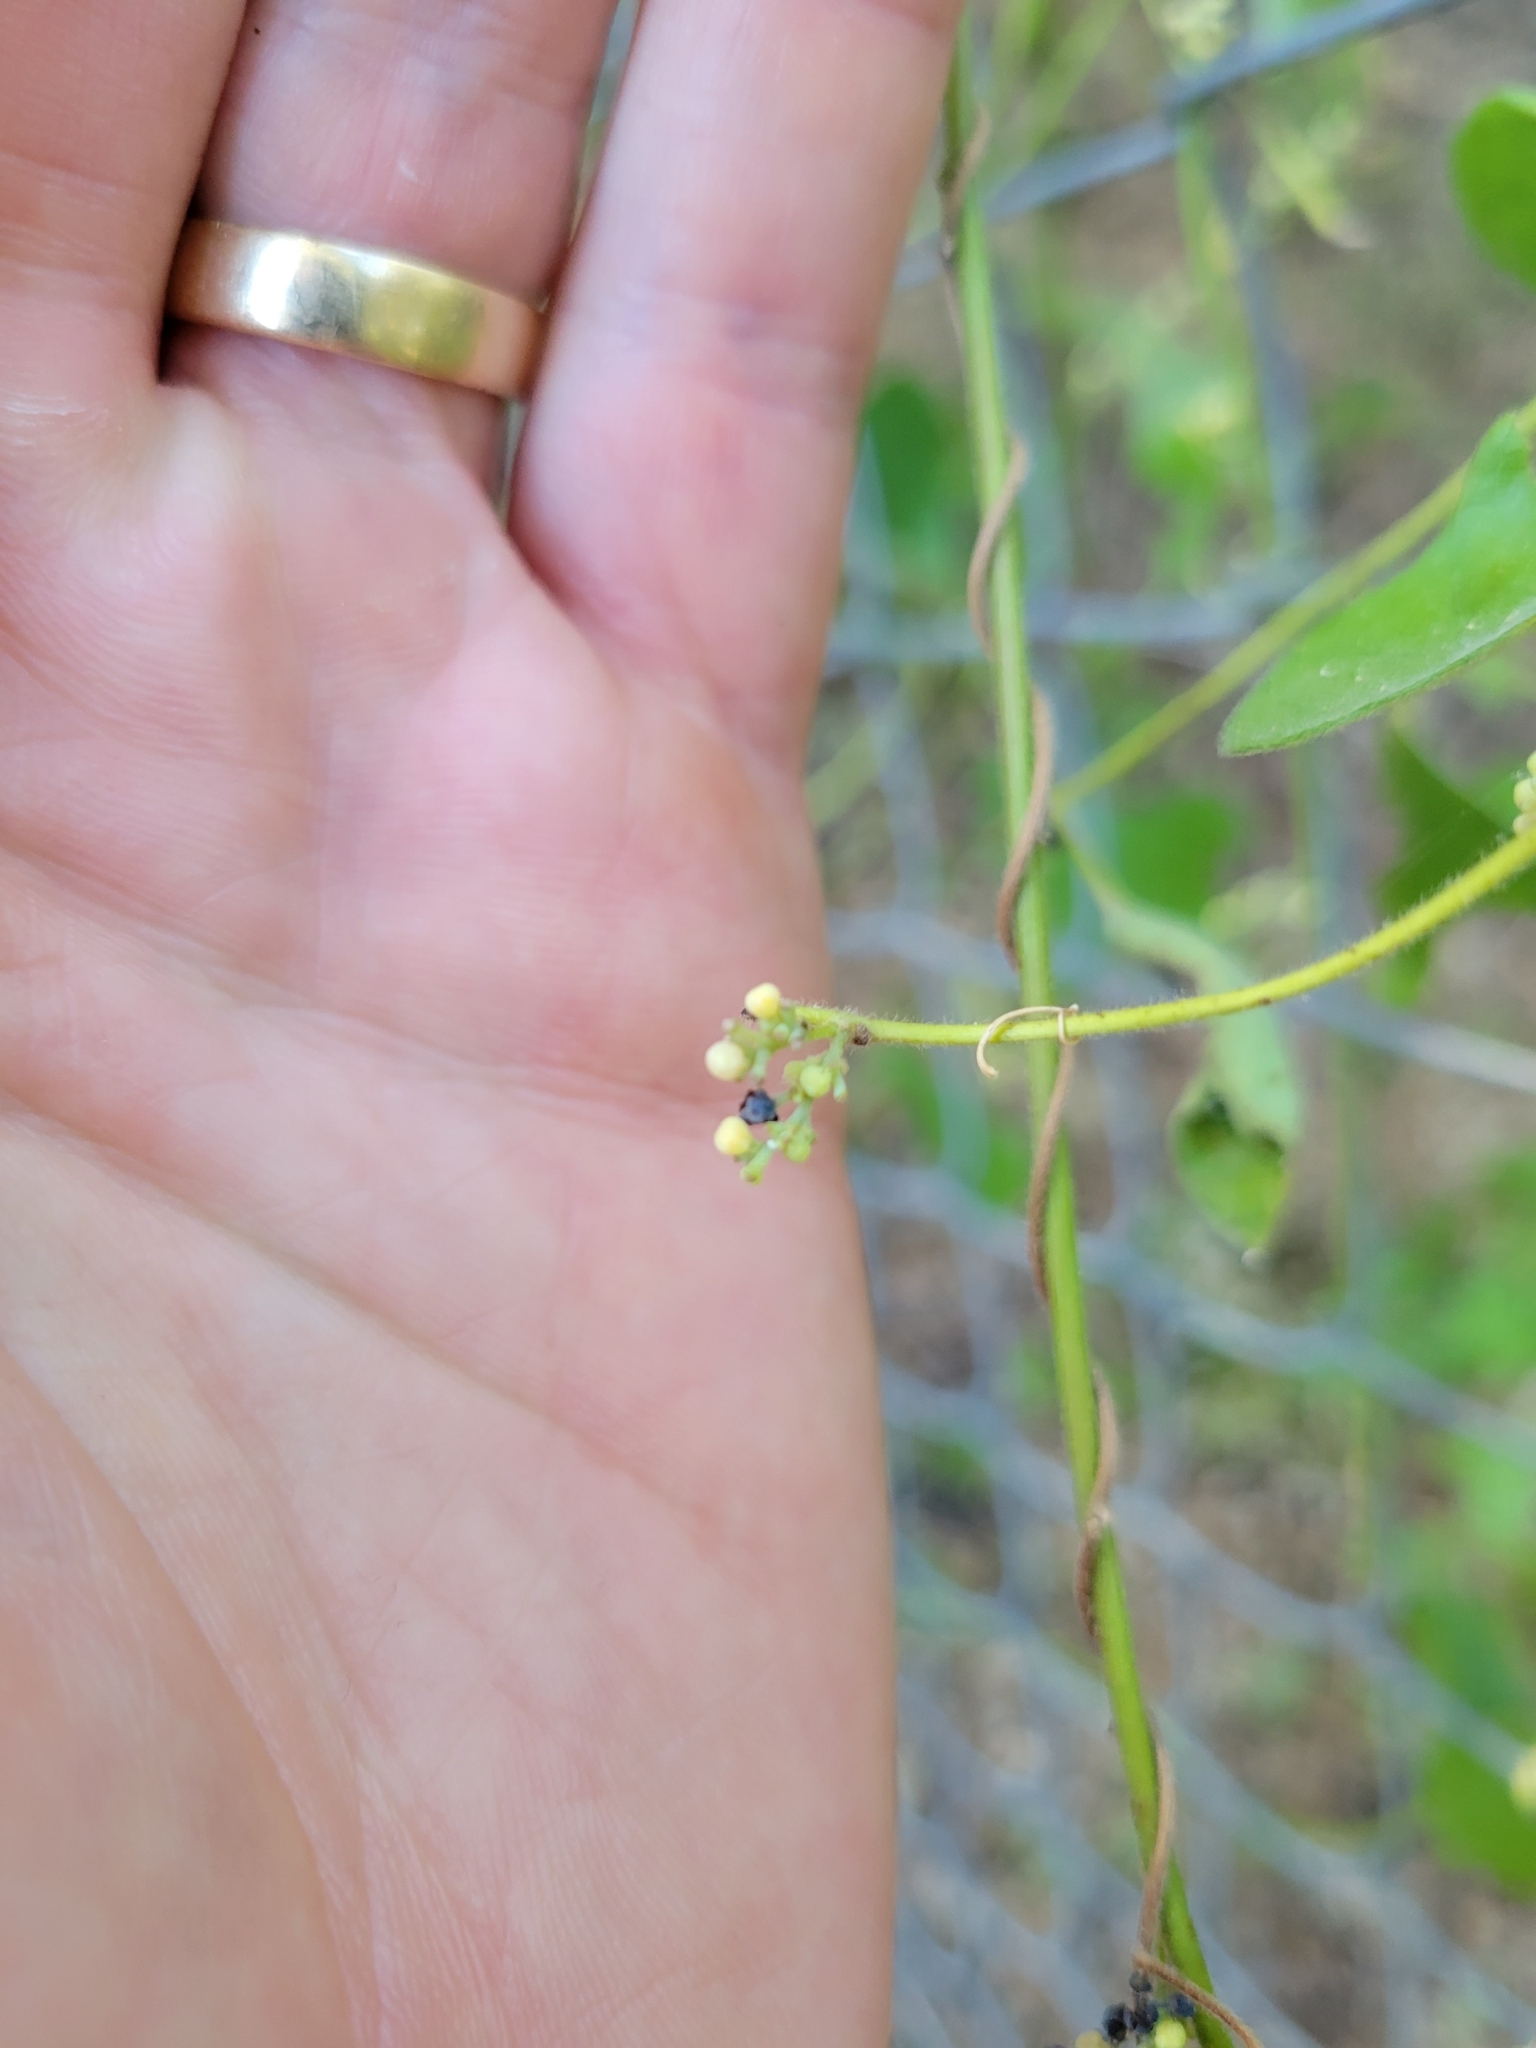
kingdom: Plantae
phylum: Tracheophyta
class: Magnoliopsida
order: Ranunculales
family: Menispermaceae
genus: Cocculus
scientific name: Cocculus carolinus
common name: Carolina moonseed
